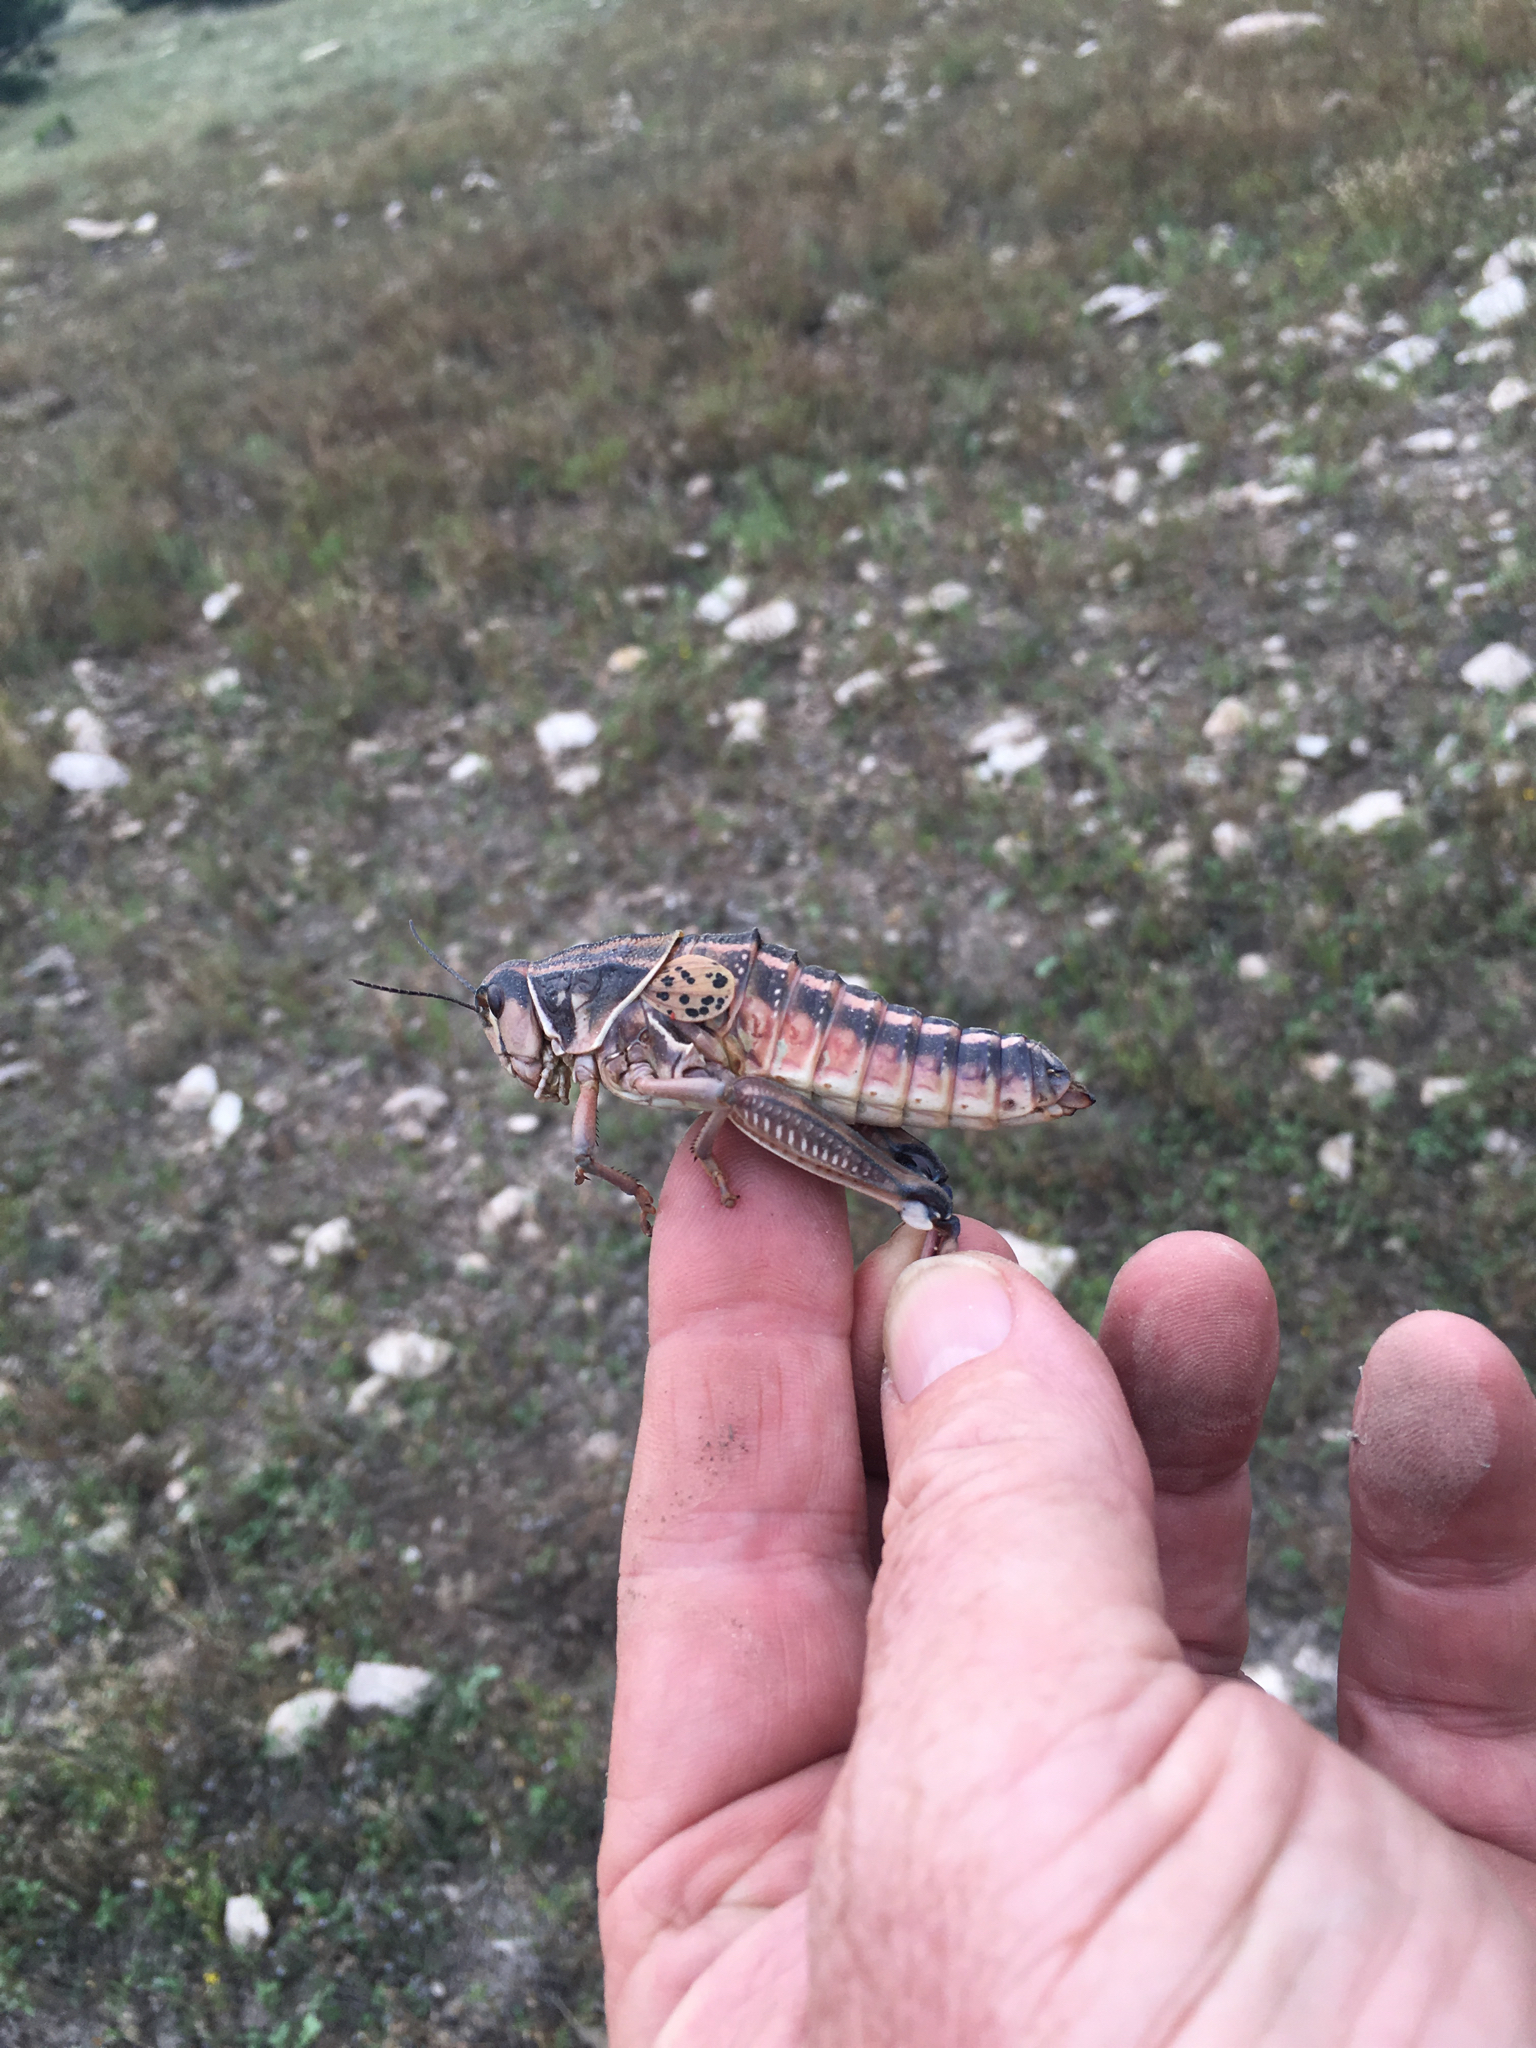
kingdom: Animalia
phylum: Arthropoda
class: Insecta
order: Orthoptera
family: Romaleidae
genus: Brachystola
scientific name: Brachystola magna
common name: Plains lubber grasshopper
